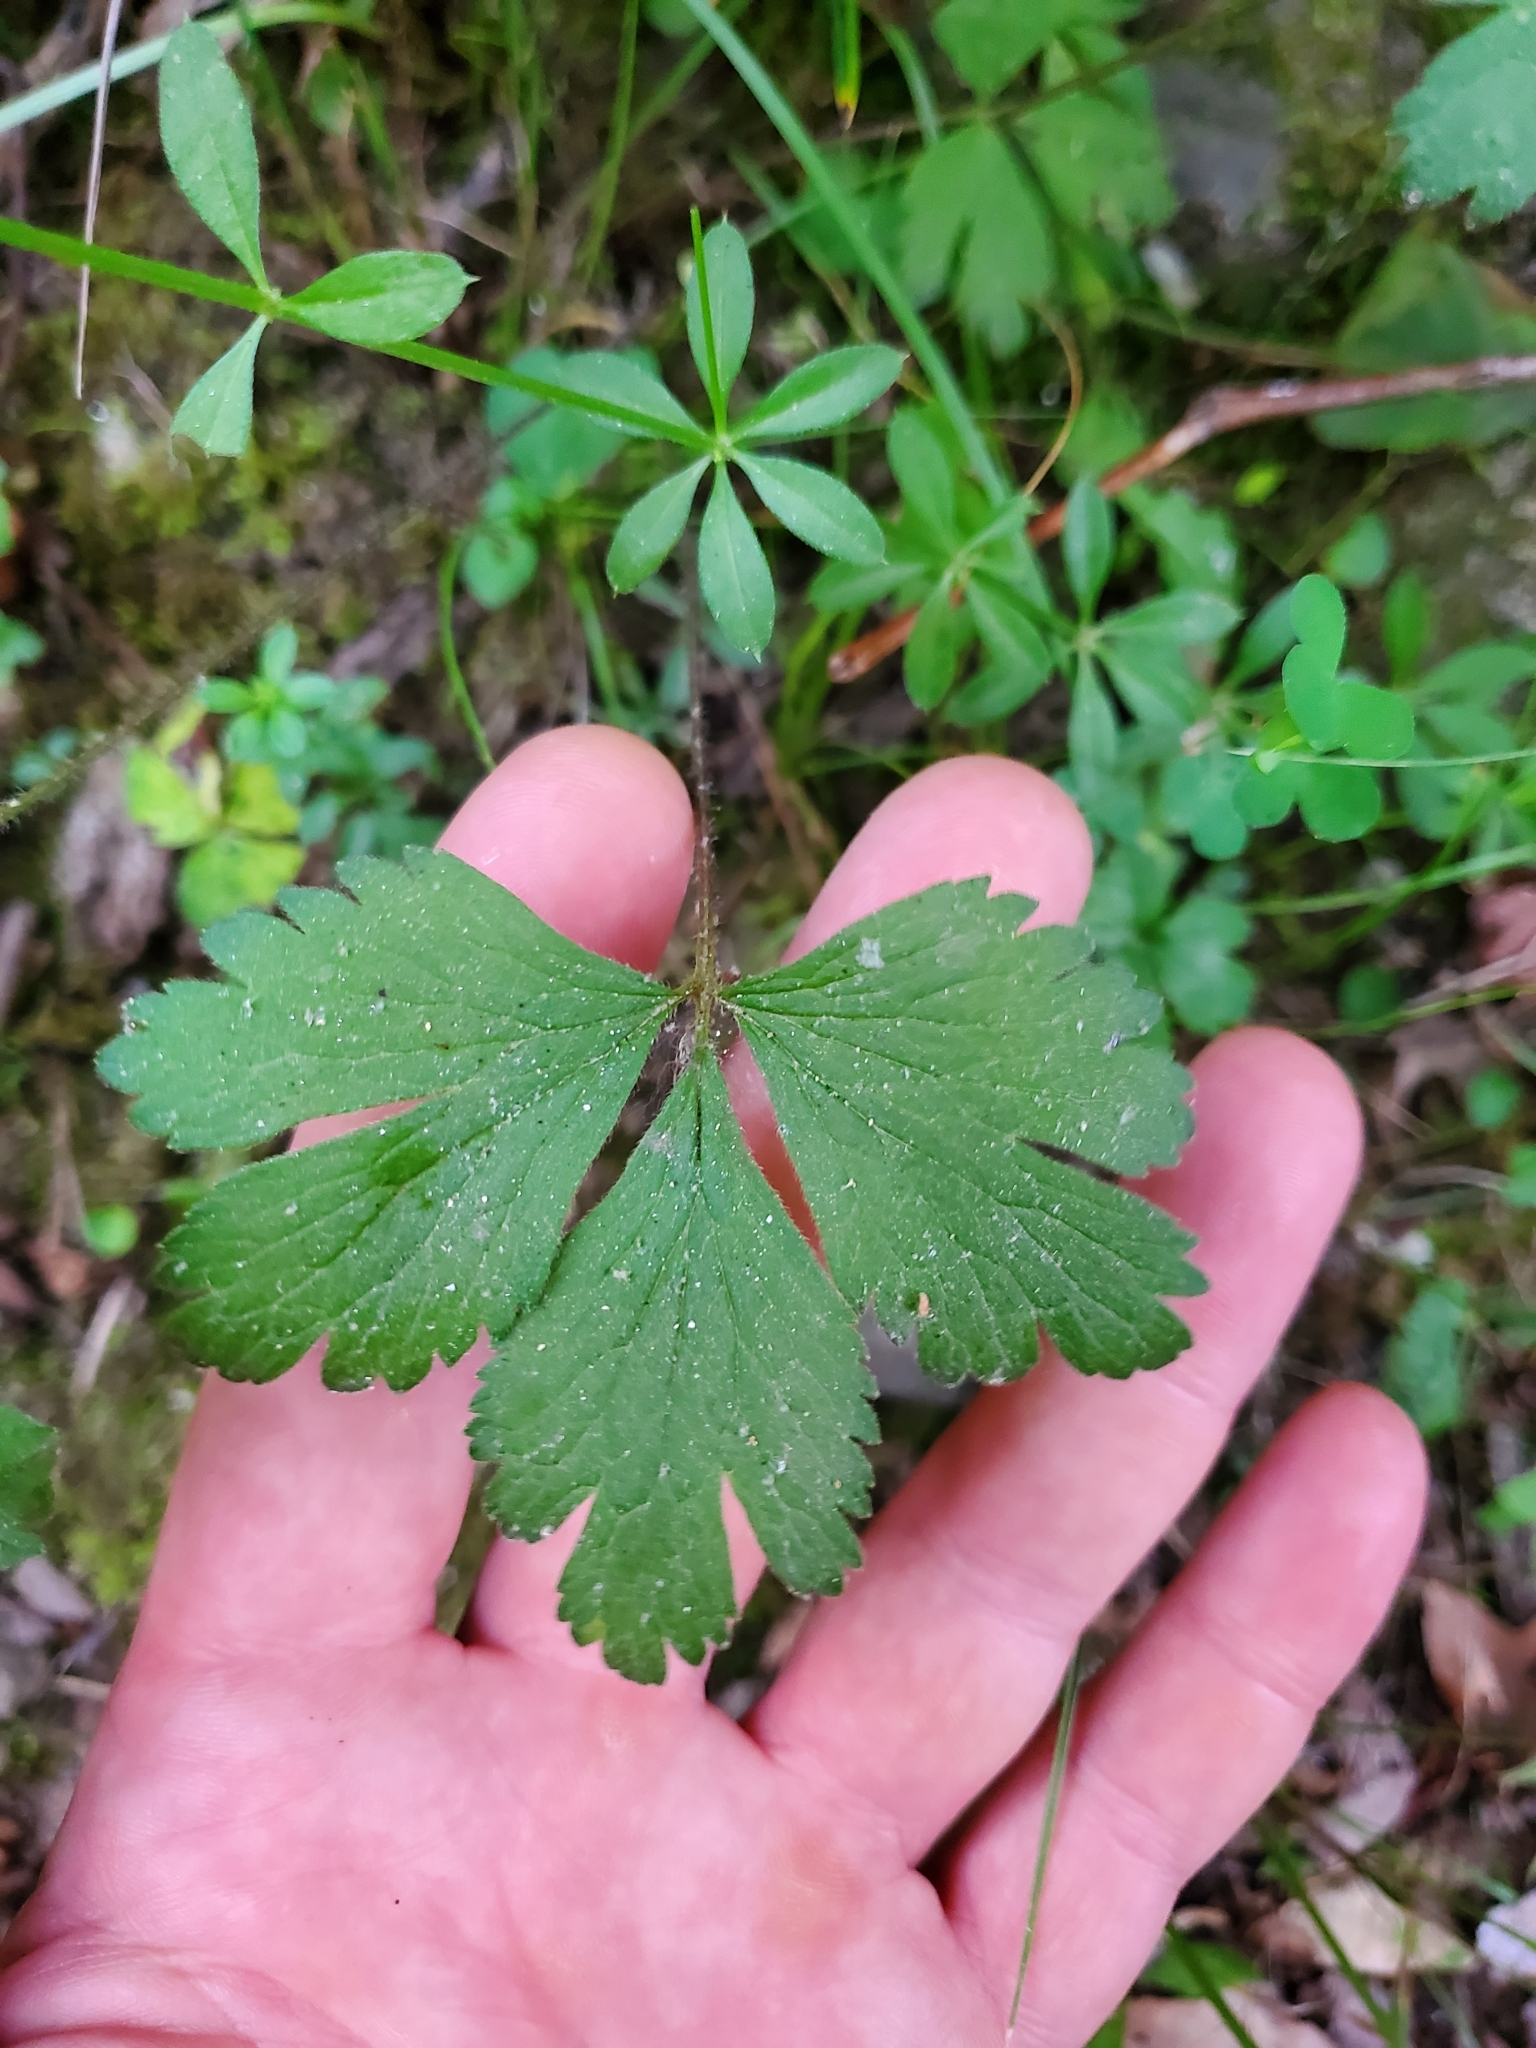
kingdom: Plantae
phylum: Tracheophyta
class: Magnoliopsida
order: Apiales
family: Apiaceae
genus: Sanicula
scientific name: Sanicula canadensis
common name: Canada sanicle
